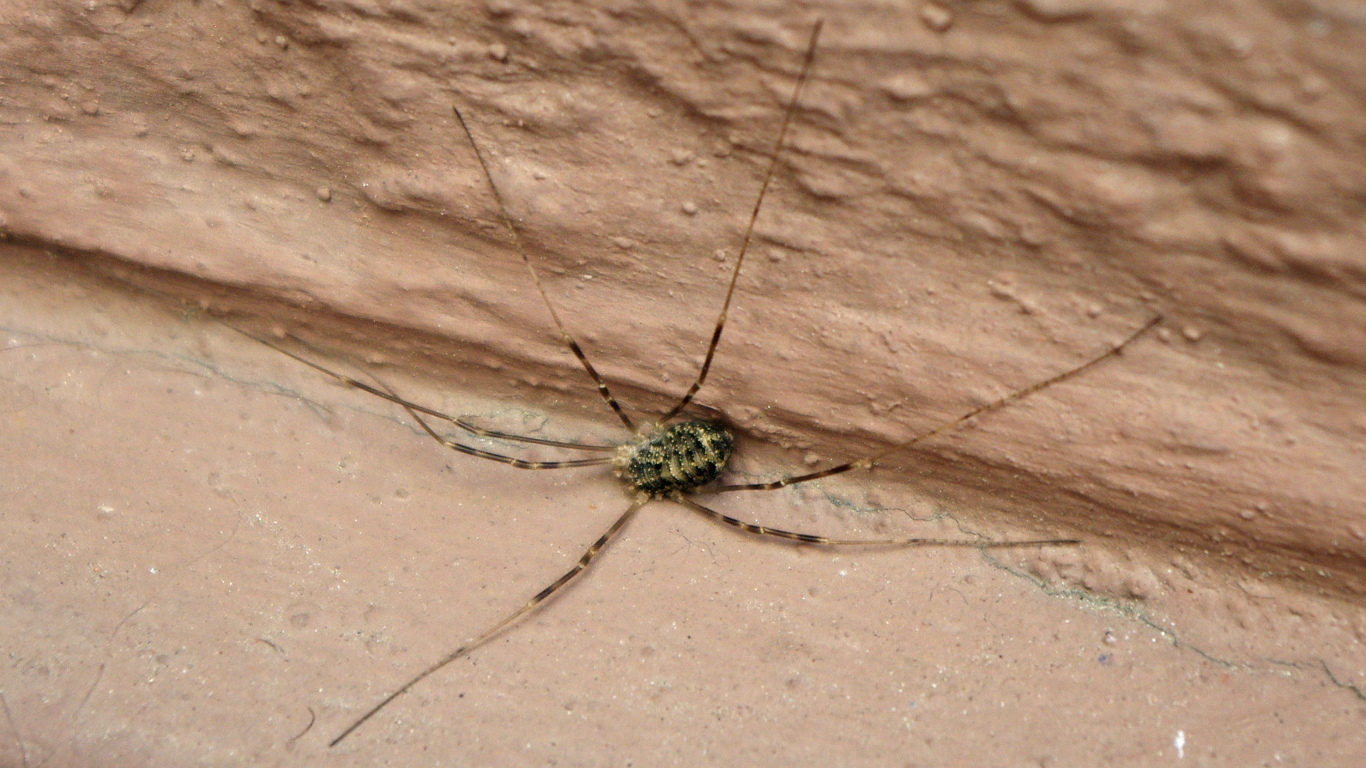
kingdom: Animalia
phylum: Arthropoda
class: Arachnida
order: Opiliones
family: Phalangiidae
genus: Opilio
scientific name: Opilio
